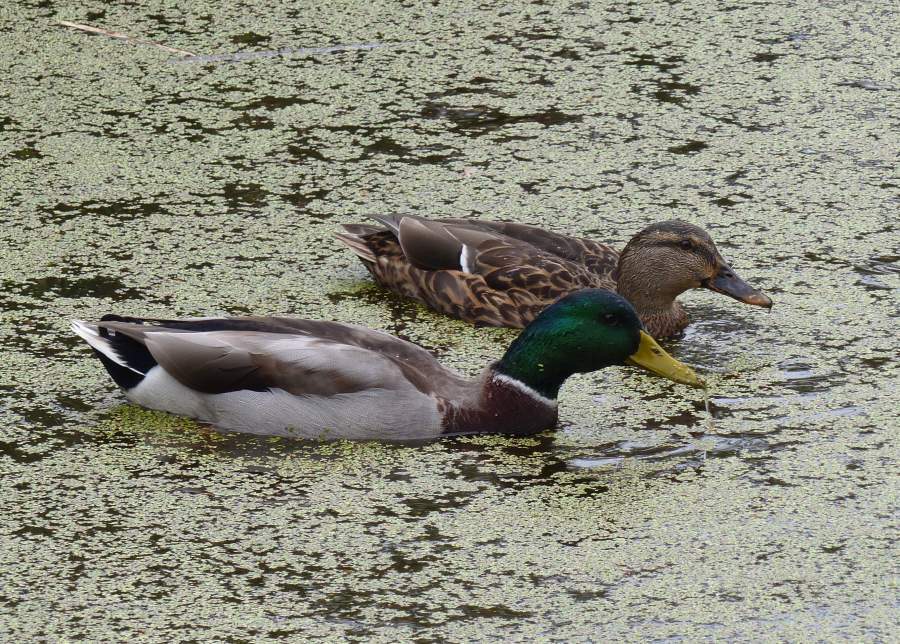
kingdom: Animalia
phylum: Chordata
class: Aves
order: Anseriformes
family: Anatidae
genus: Anas
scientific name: Anas platyrhynchos
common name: Mallard
